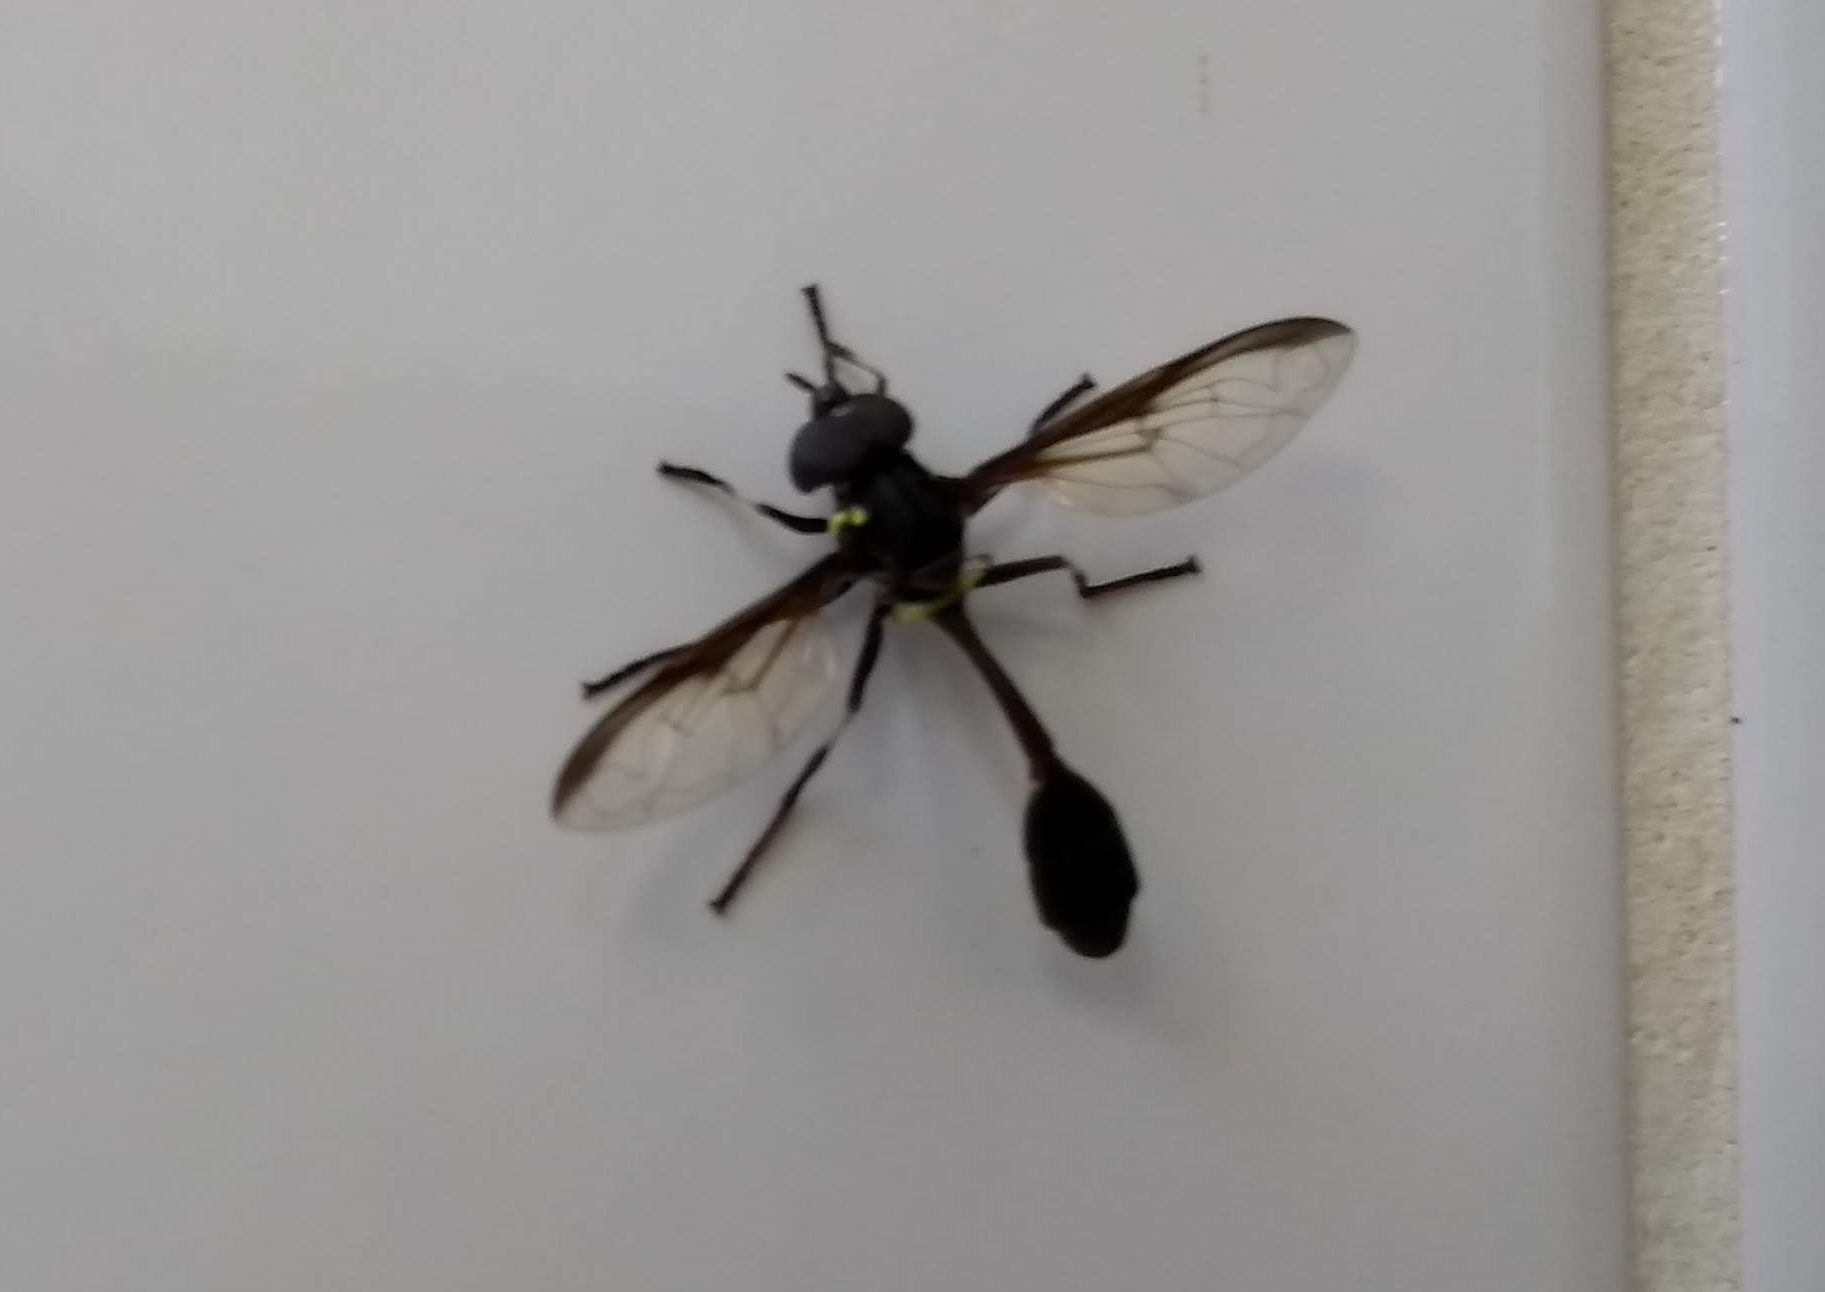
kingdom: Animalia
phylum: Arthropoda
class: Insecta
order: Diptera
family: Syrphidae
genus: Salpingogaster
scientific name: Salpingogaster nigra
